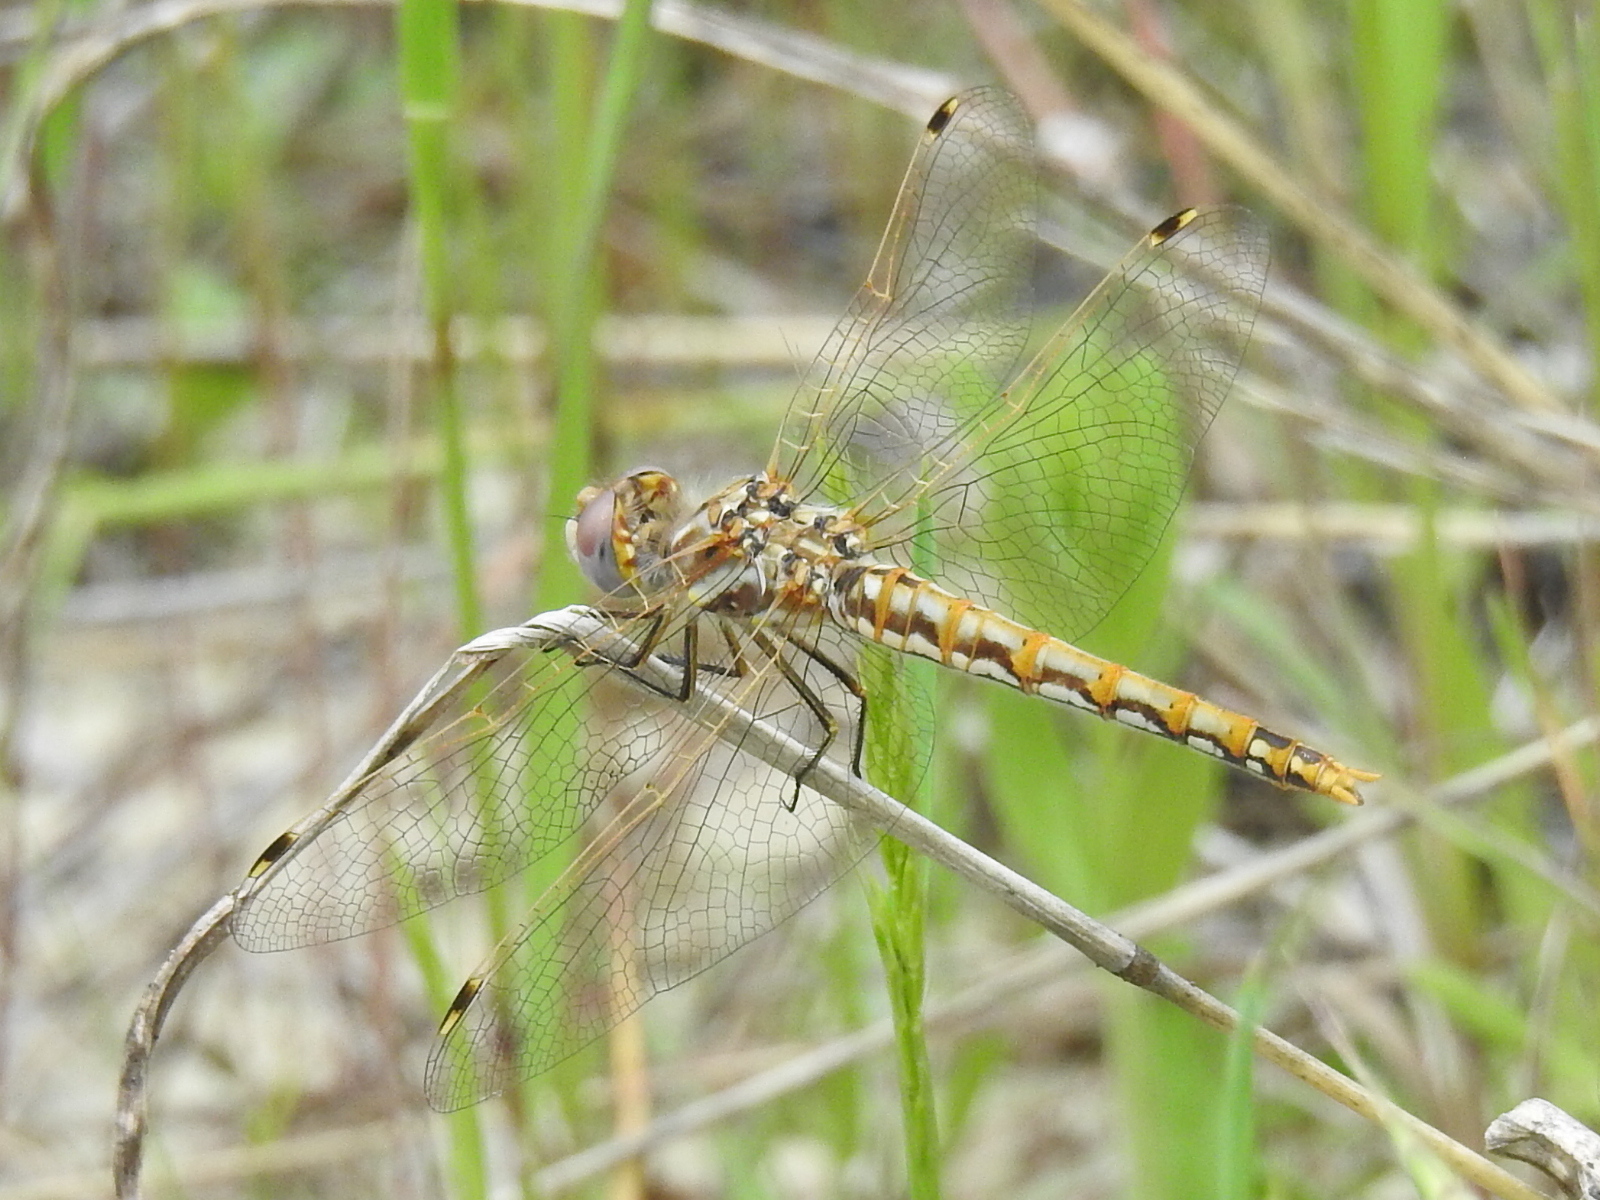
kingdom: Animalia
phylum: Arthropoda
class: Insecta
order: Odonata
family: Libellulidae
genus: Sympetrum
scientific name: Sympetrum corruptum
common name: Variegated meadowhawk
